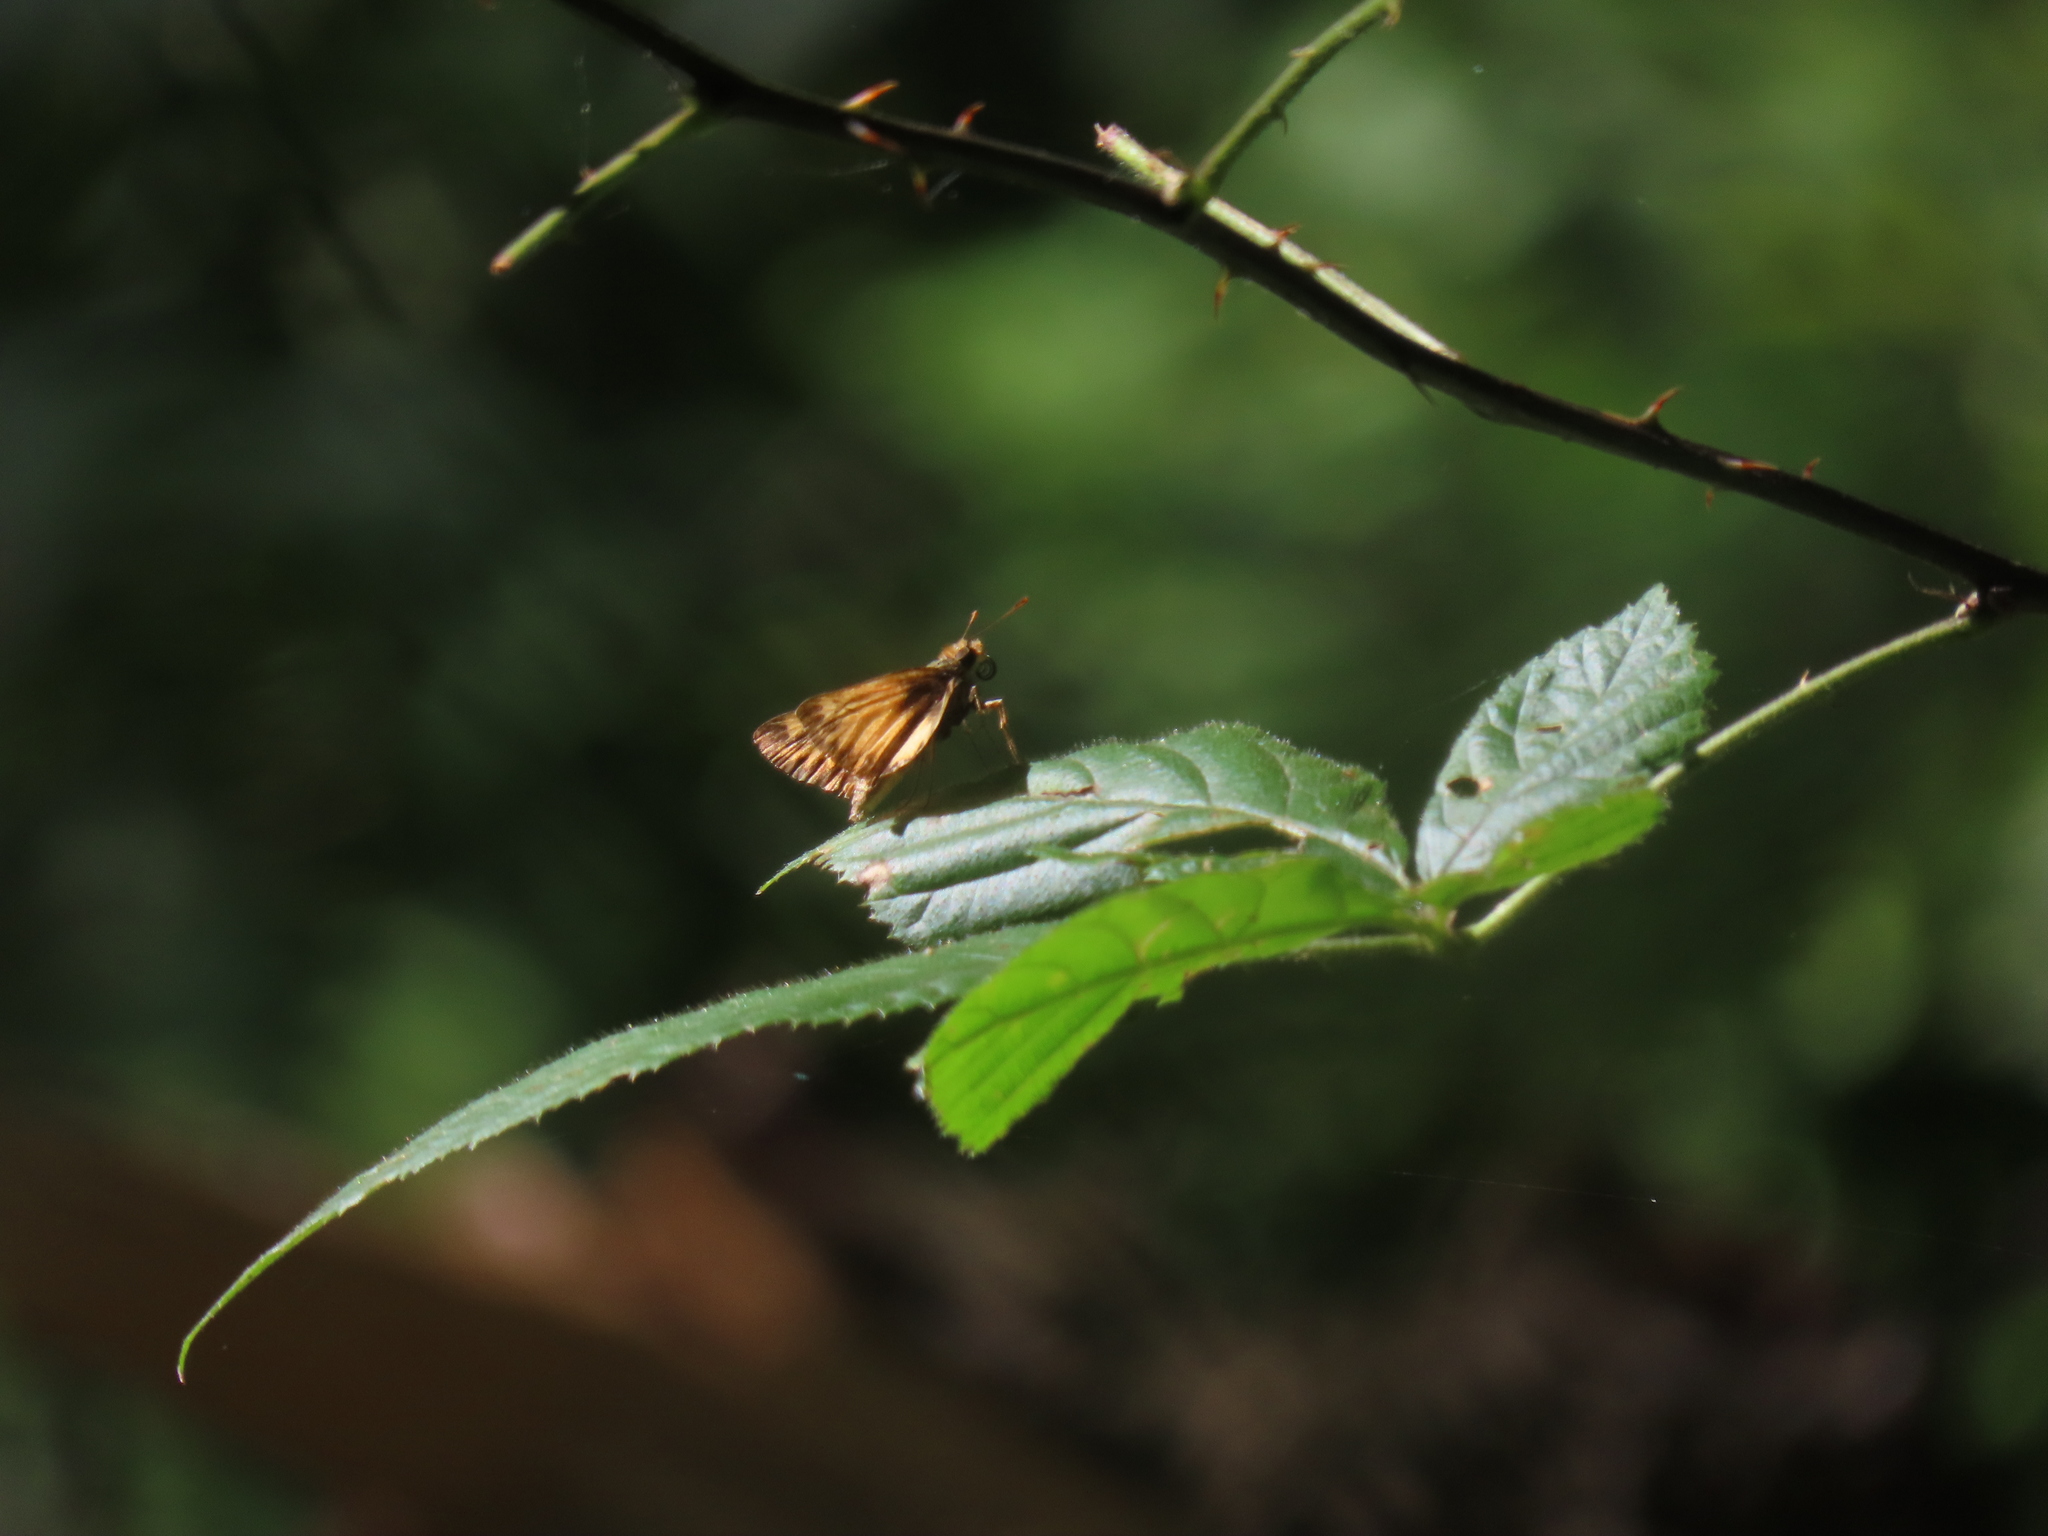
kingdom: Animalia
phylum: Arthropoda
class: Insecta
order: Lepidoptera
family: Hesperiidae
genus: Lon
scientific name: Lon zabulon
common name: Zabulon skipper
